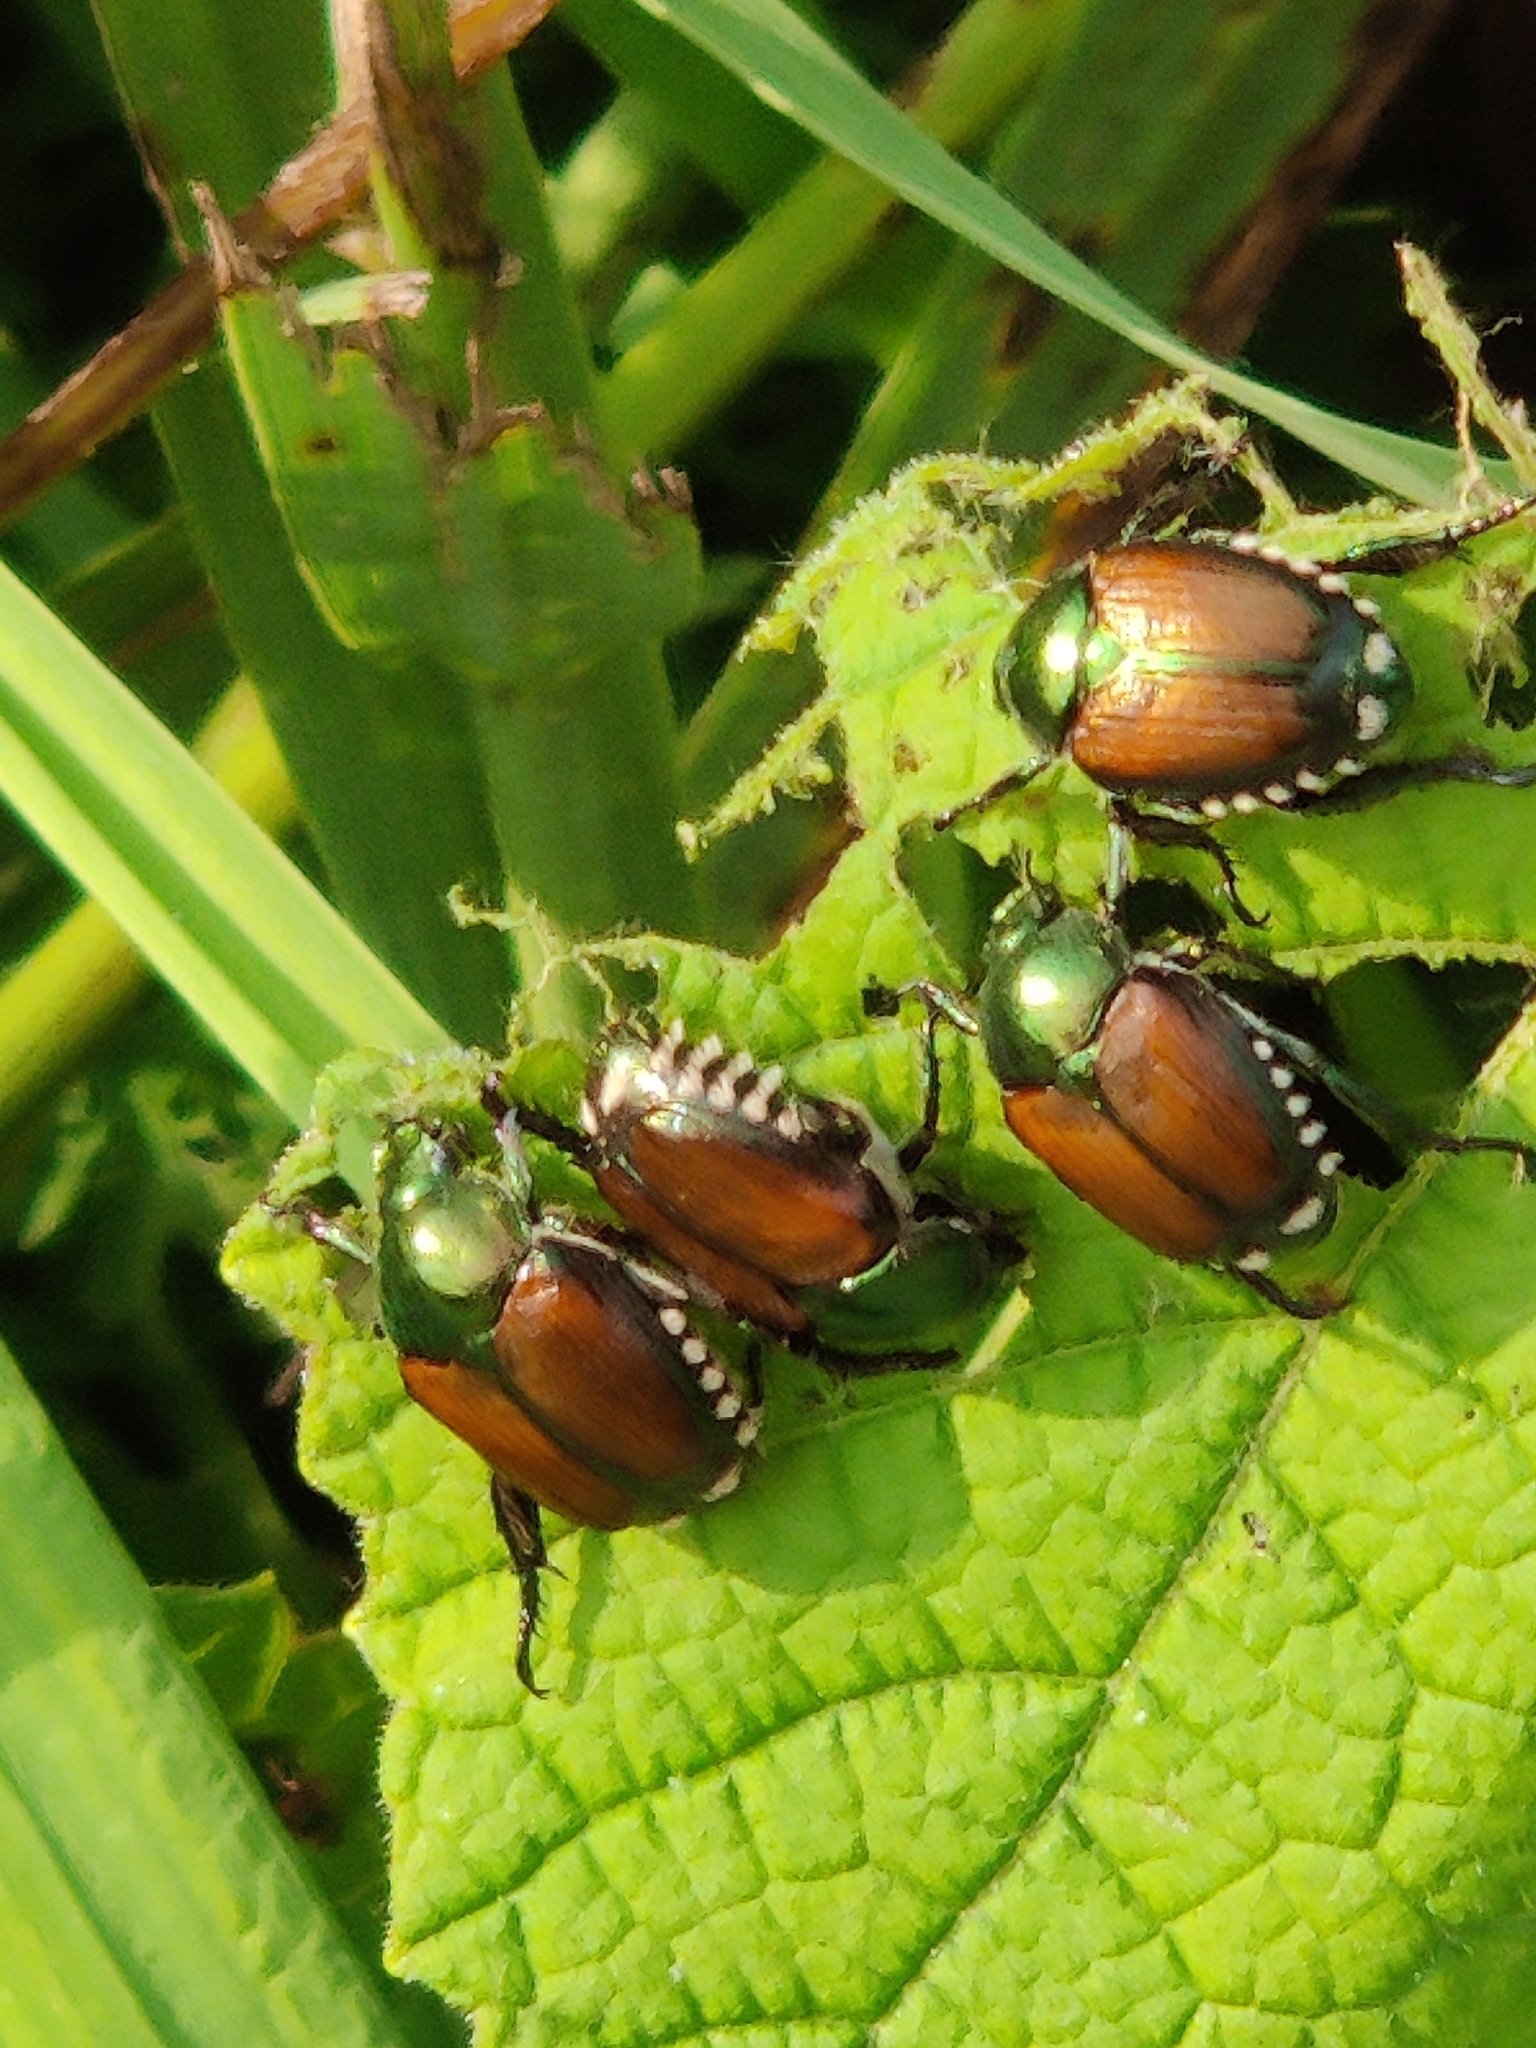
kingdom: Animalia
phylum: Arthropoda
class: Insecta
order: Coleoptera
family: Scarabaeidae
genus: Popillia
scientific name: Popillia japonica
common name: Japanese beetle
